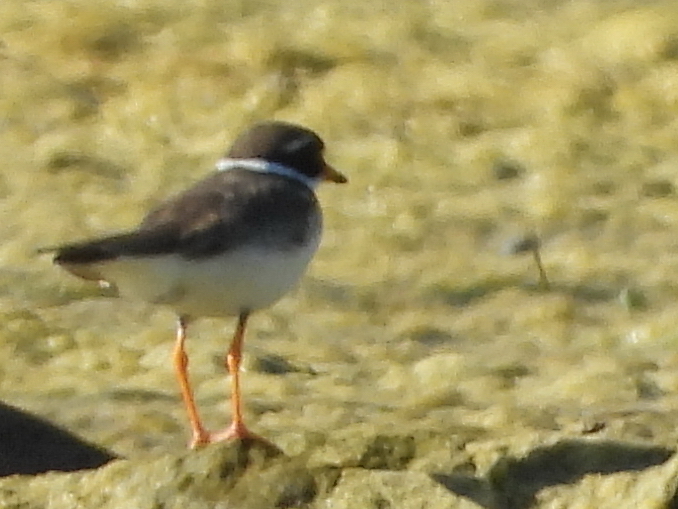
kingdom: Animalia
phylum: Chordata
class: Aves
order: Charadriiformes
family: Charadriidae
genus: Charadrius
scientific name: Charadrius hiaticula
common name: Common ringed plover
